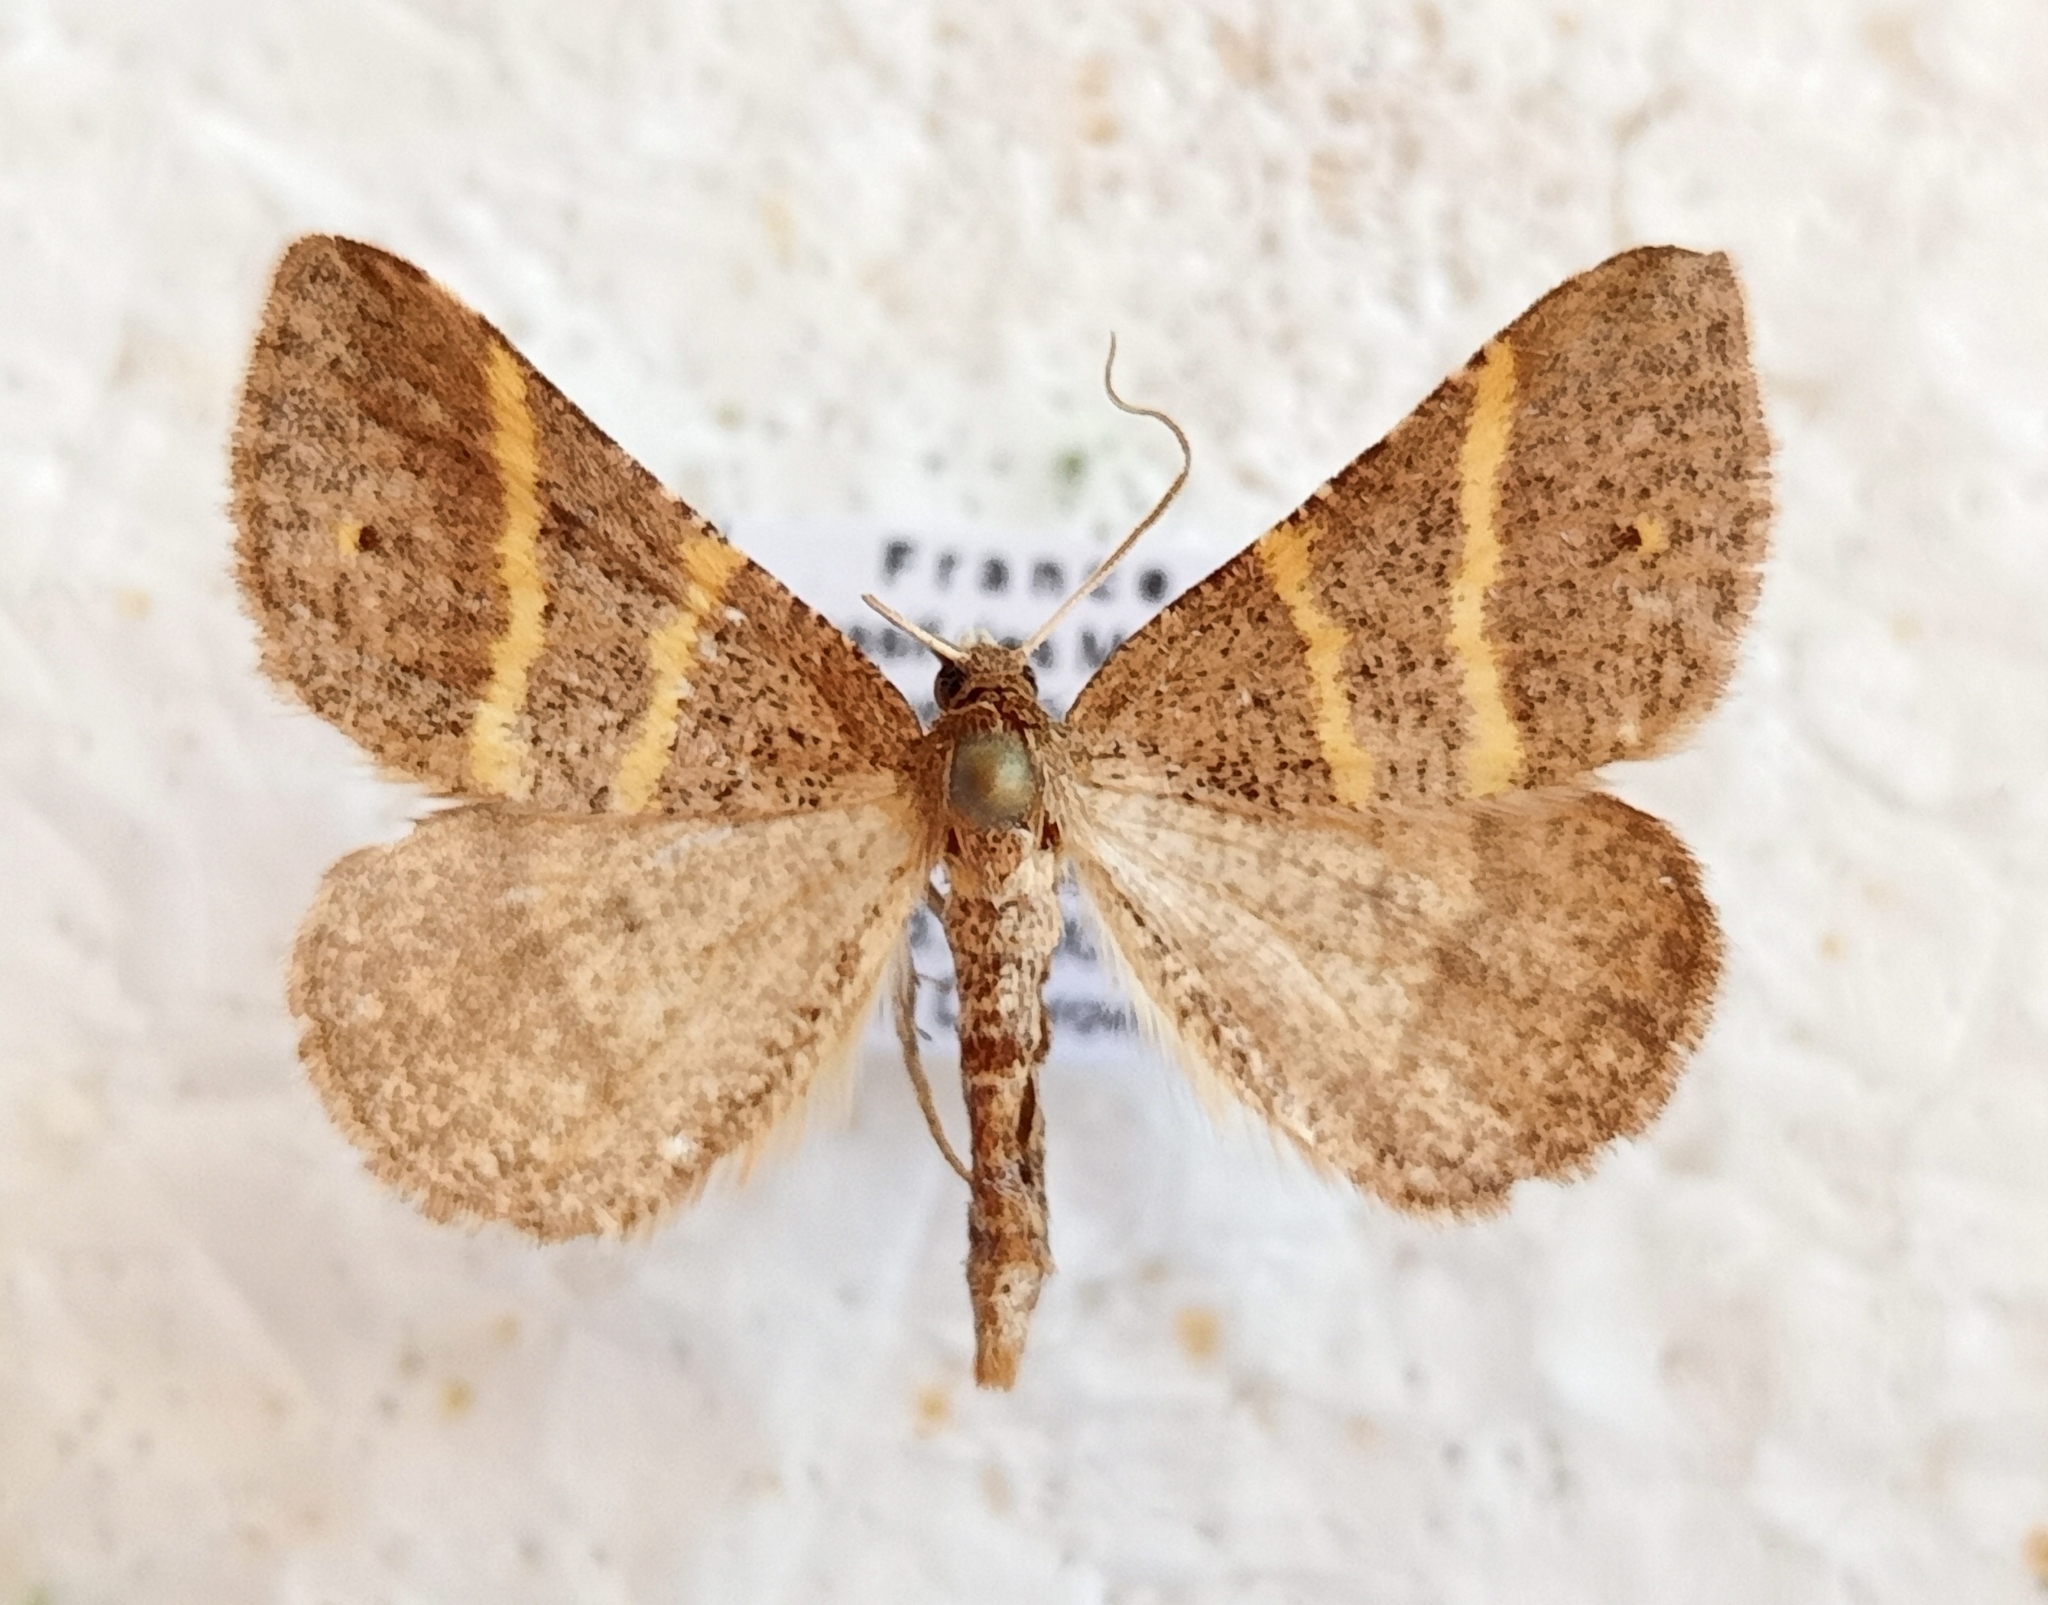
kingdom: Animalia
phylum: Arthropoda
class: Insecta
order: Lepidoptera
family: Pterophoridae
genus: Pterophorus
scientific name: Pterophorus Petrophora narbonea
